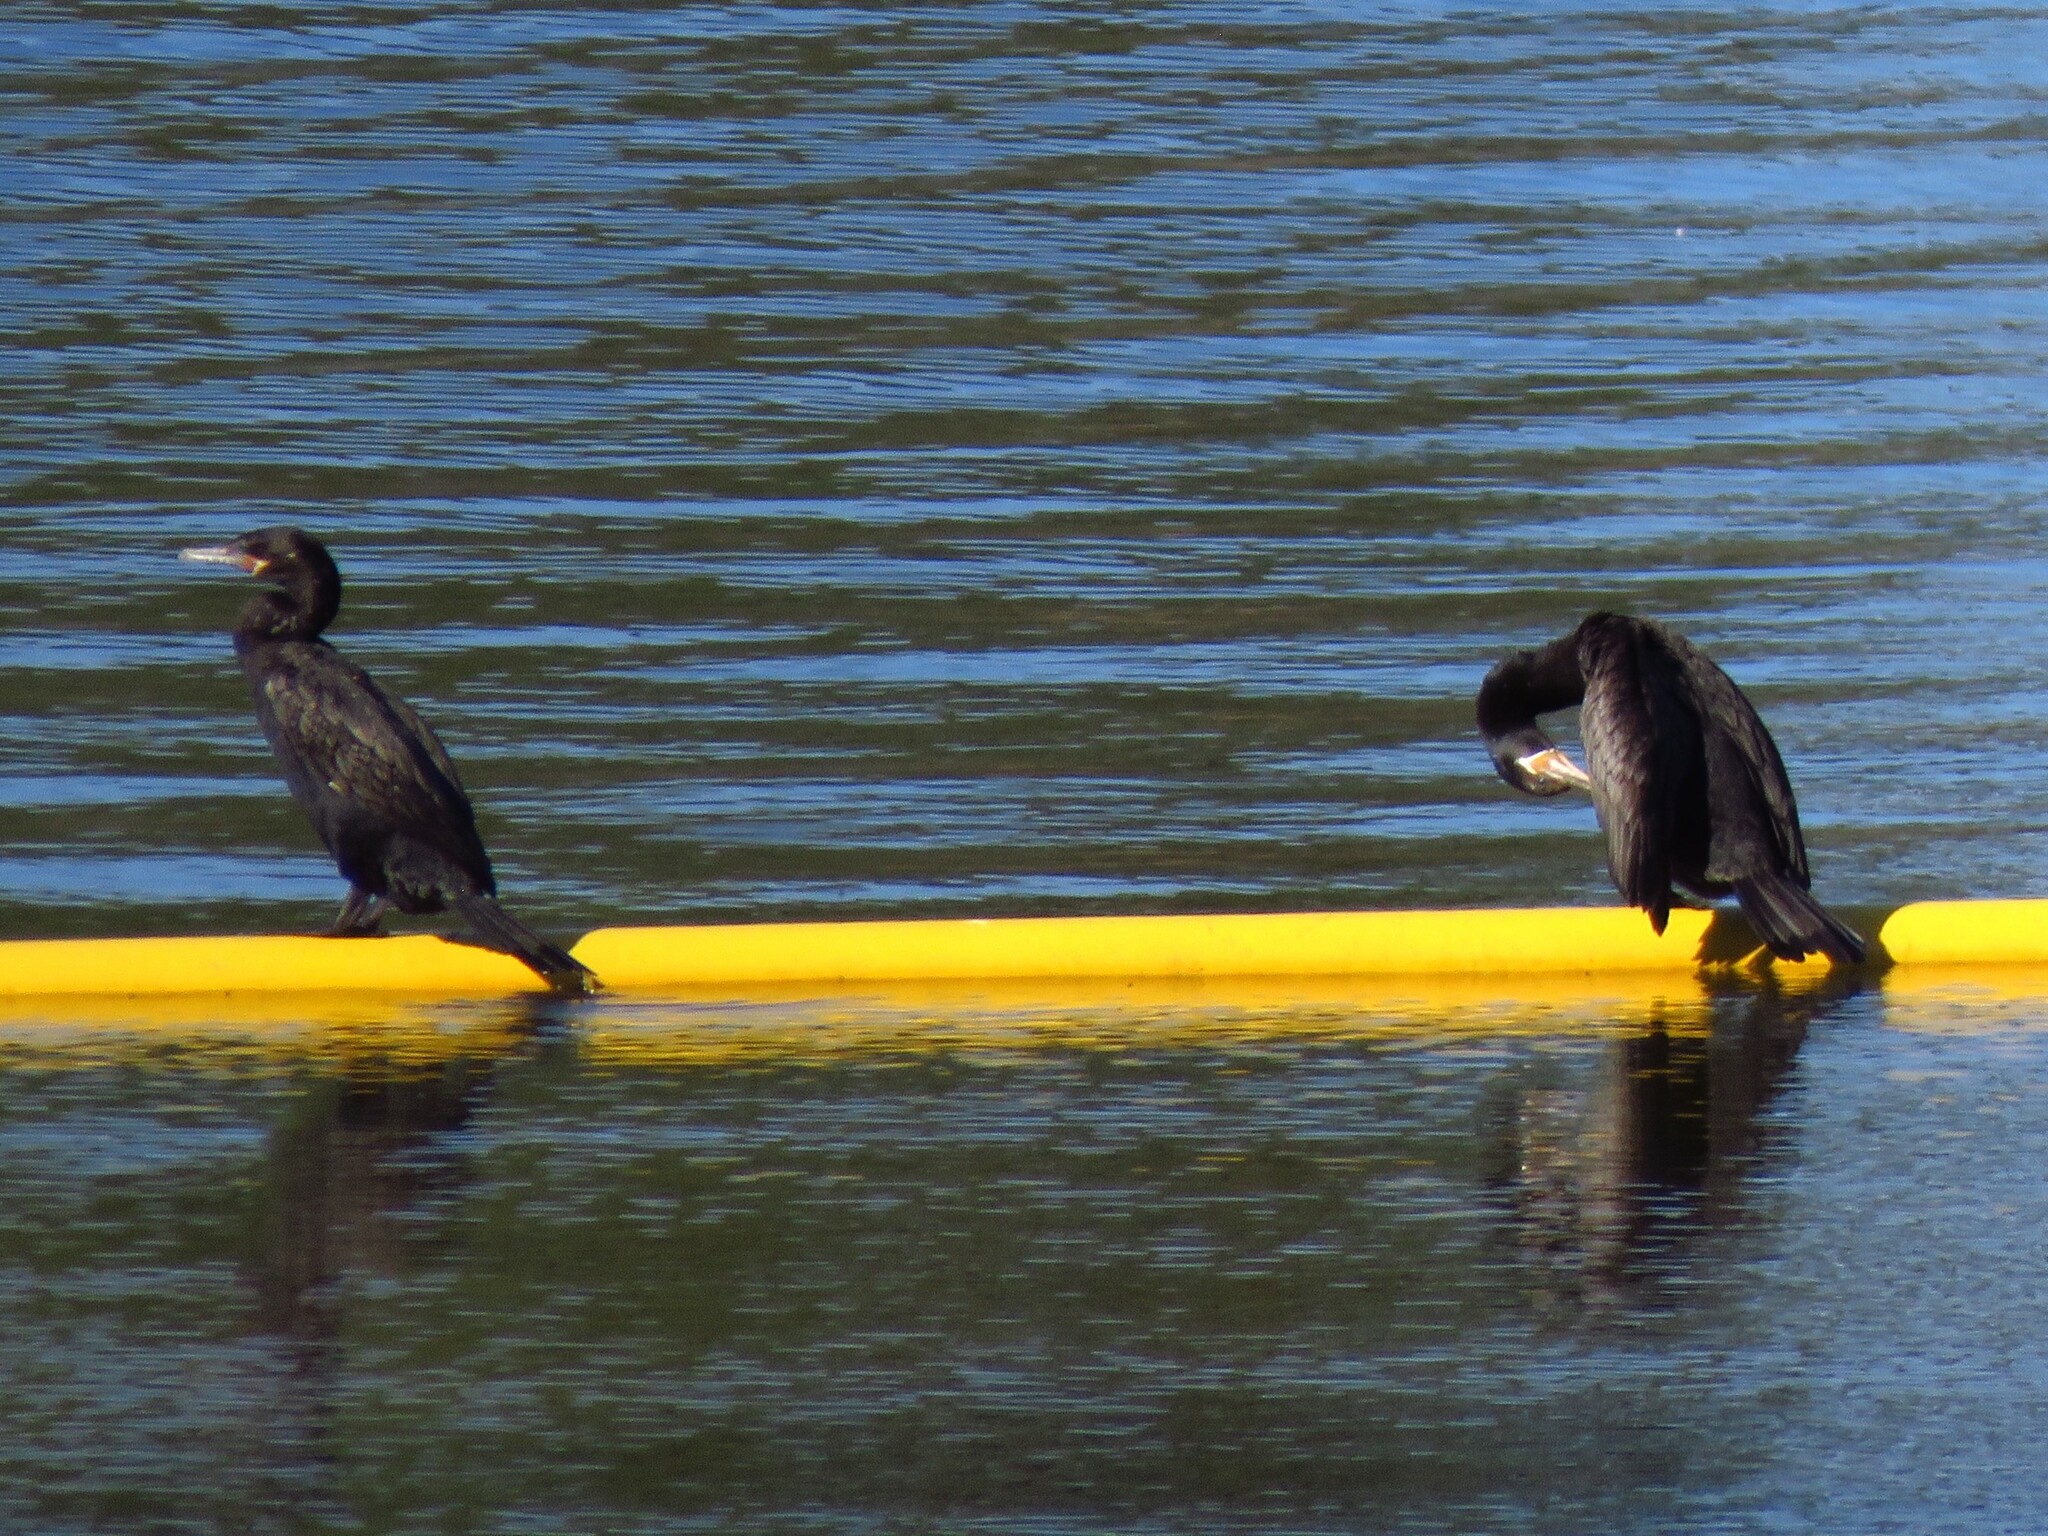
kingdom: Animalia
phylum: Chordata
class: Aves
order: Suliformes
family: Phalacrocoracidae
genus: Phalacrocorax
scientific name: Phalacrocorax brasilianus
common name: Neotropic cormorant
